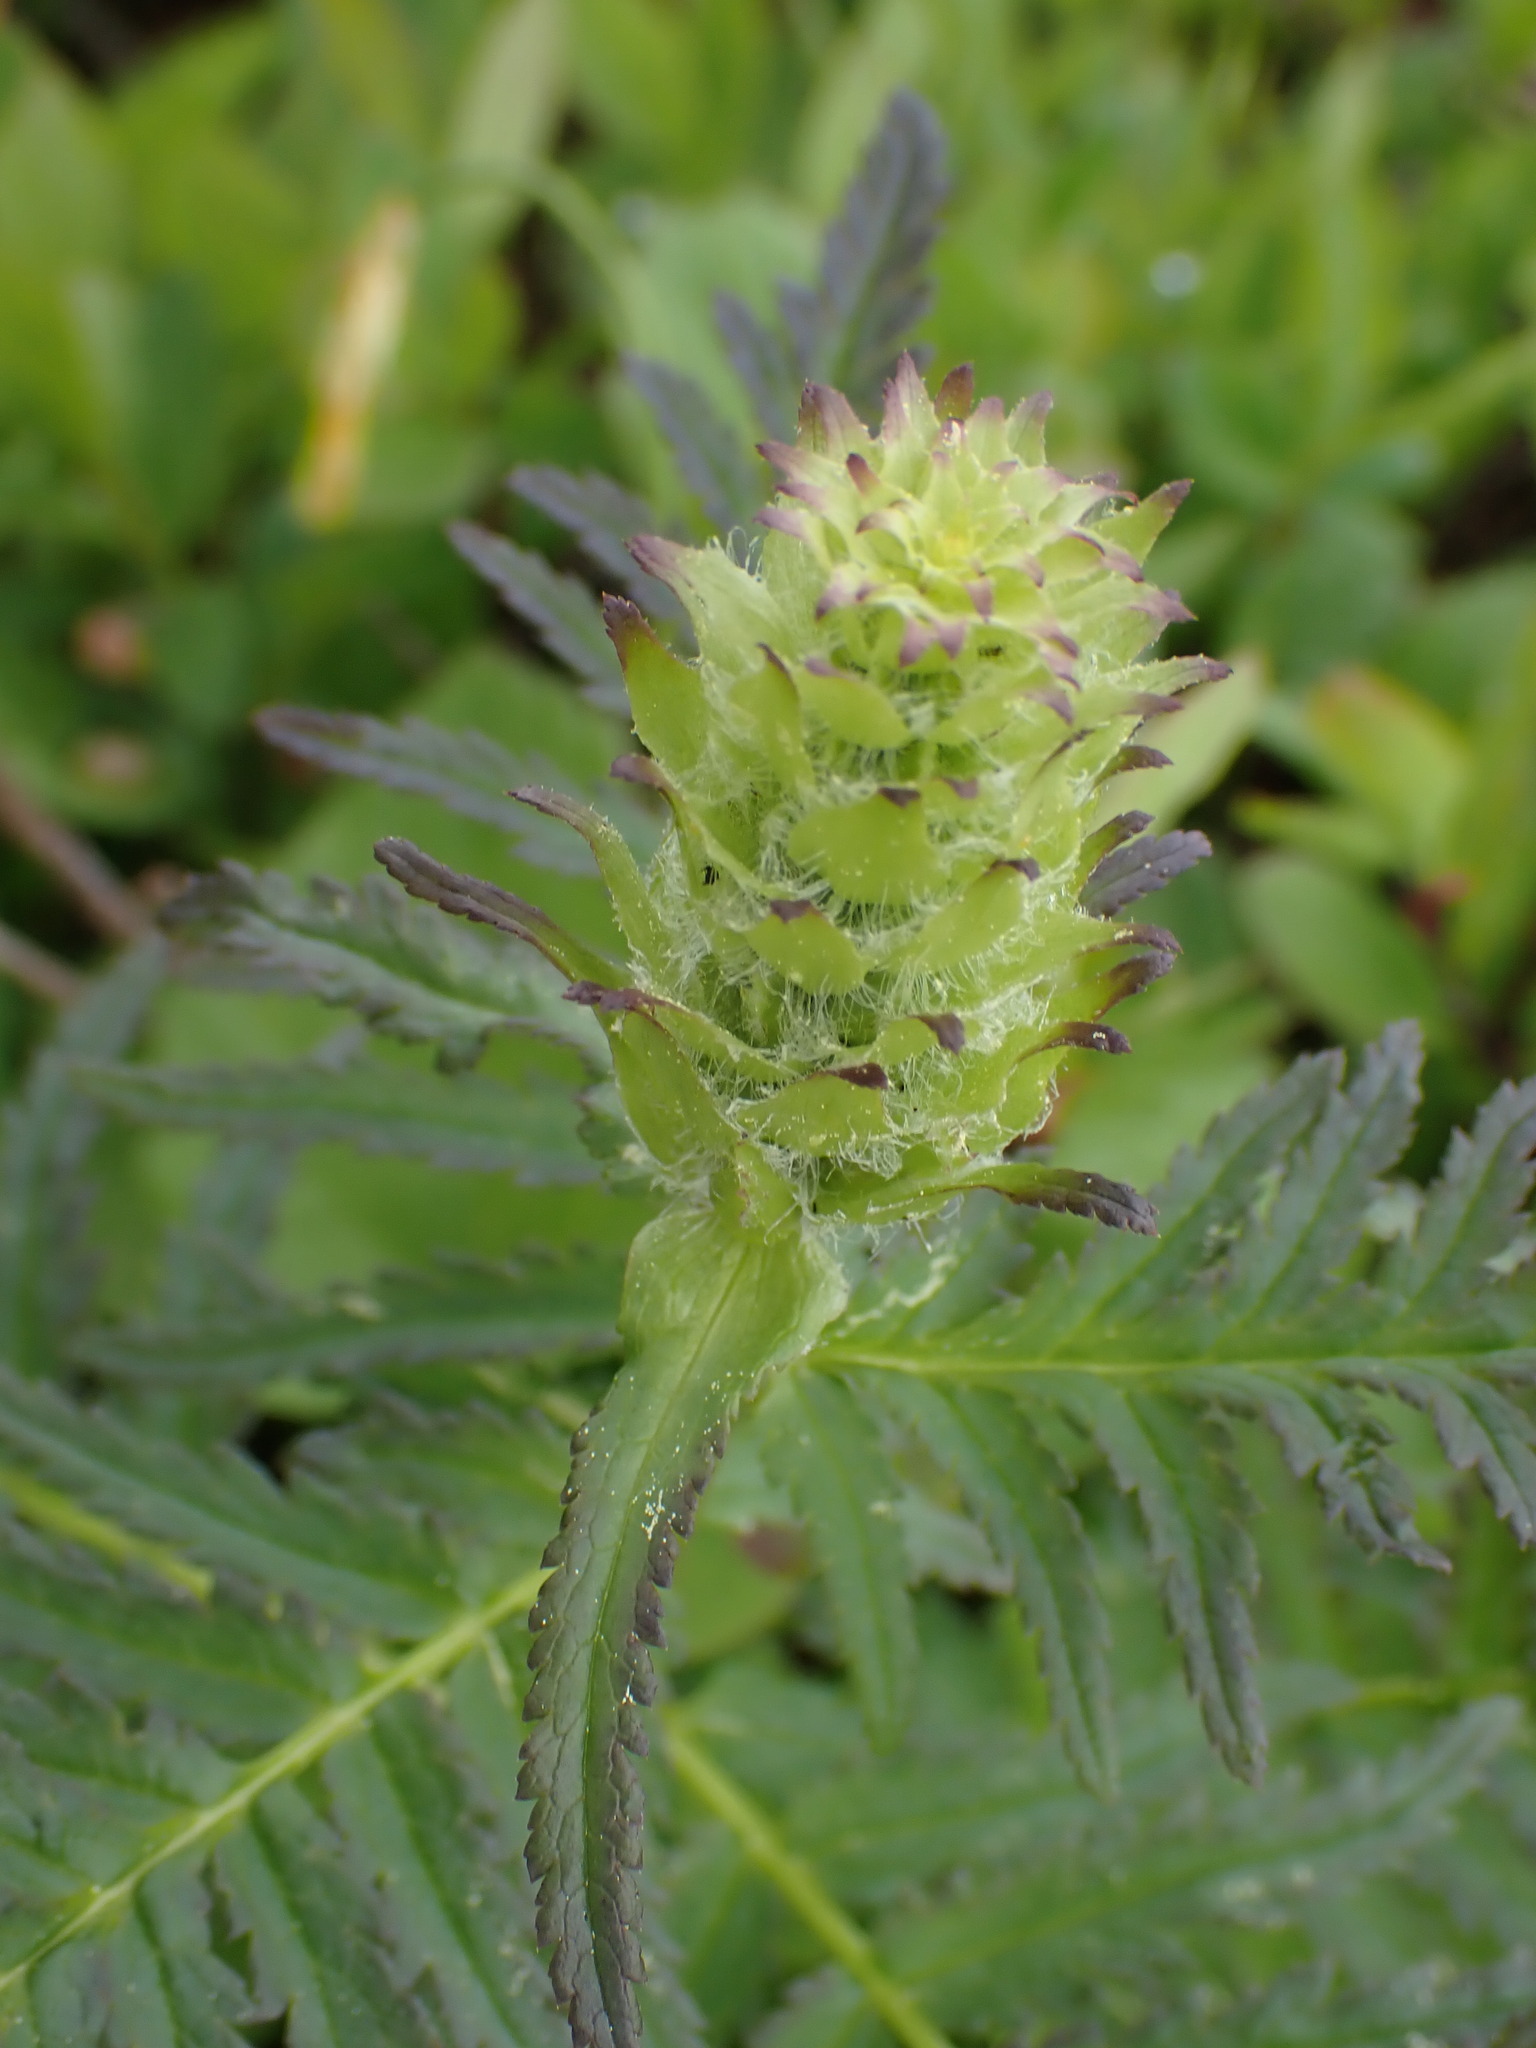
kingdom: Plantae
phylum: Tracheophyta
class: Magnoliopsida
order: Lamiales
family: Orobanchaceae
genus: Pedicularis
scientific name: Pedicularis bracteosa
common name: Bracted lousewort
